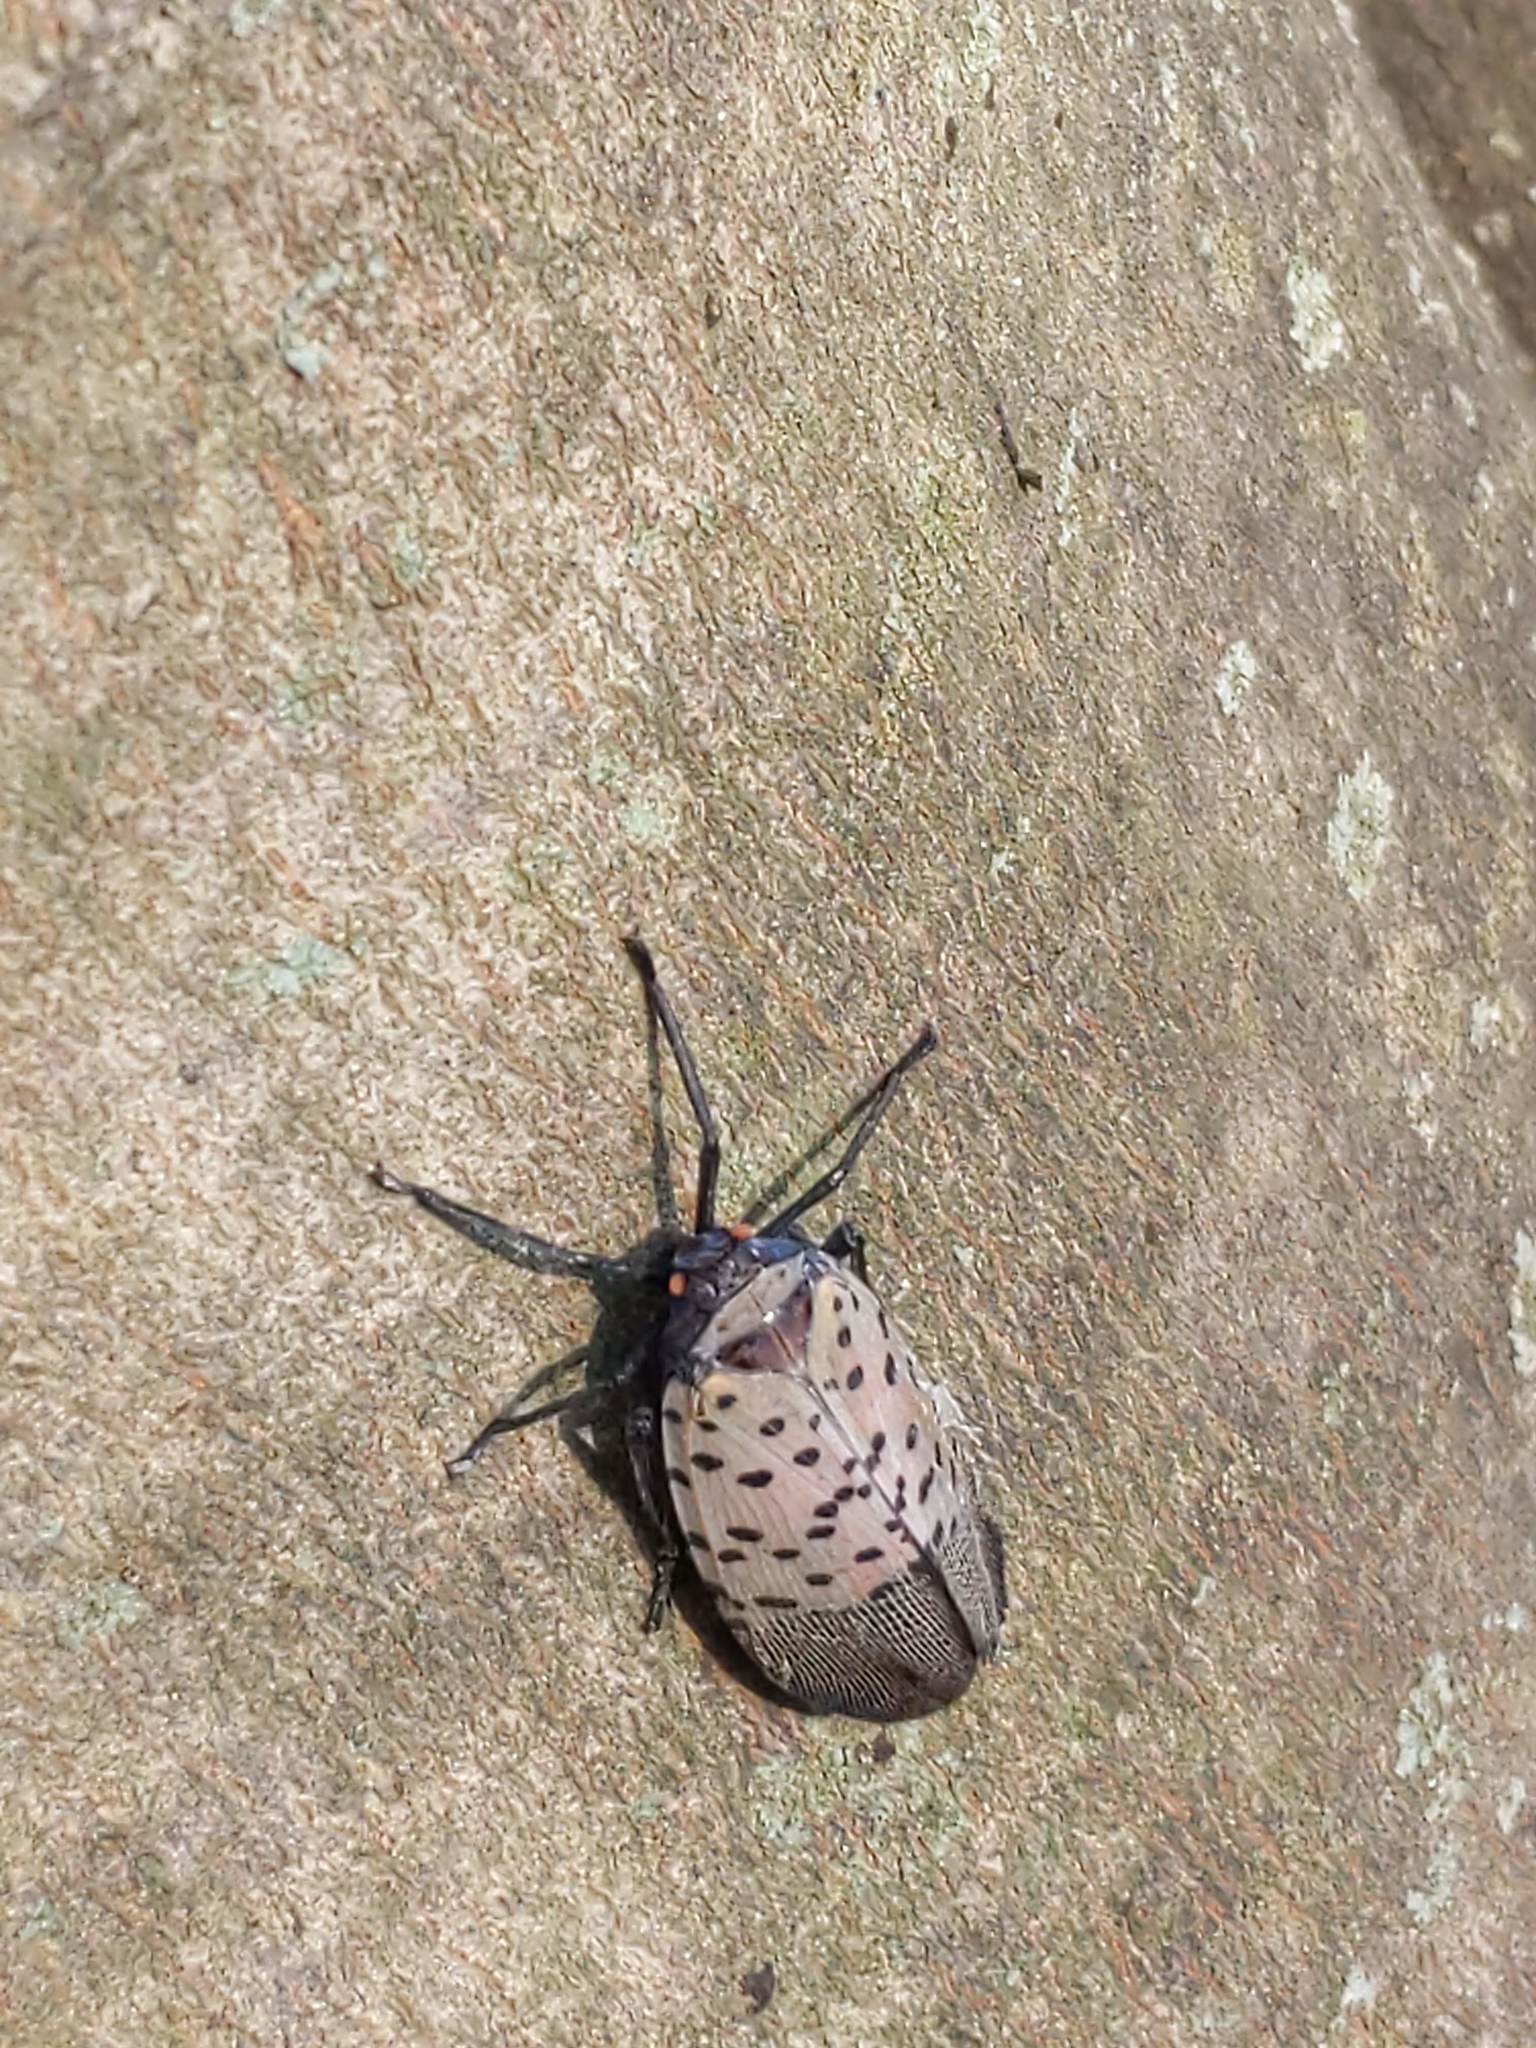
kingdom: Animalia
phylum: Arthropoda
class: Insecta
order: Hemiptera
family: Fulgoridae
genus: Lycorma
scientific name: Lycorma delicatula
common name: Spotted lanternfly
